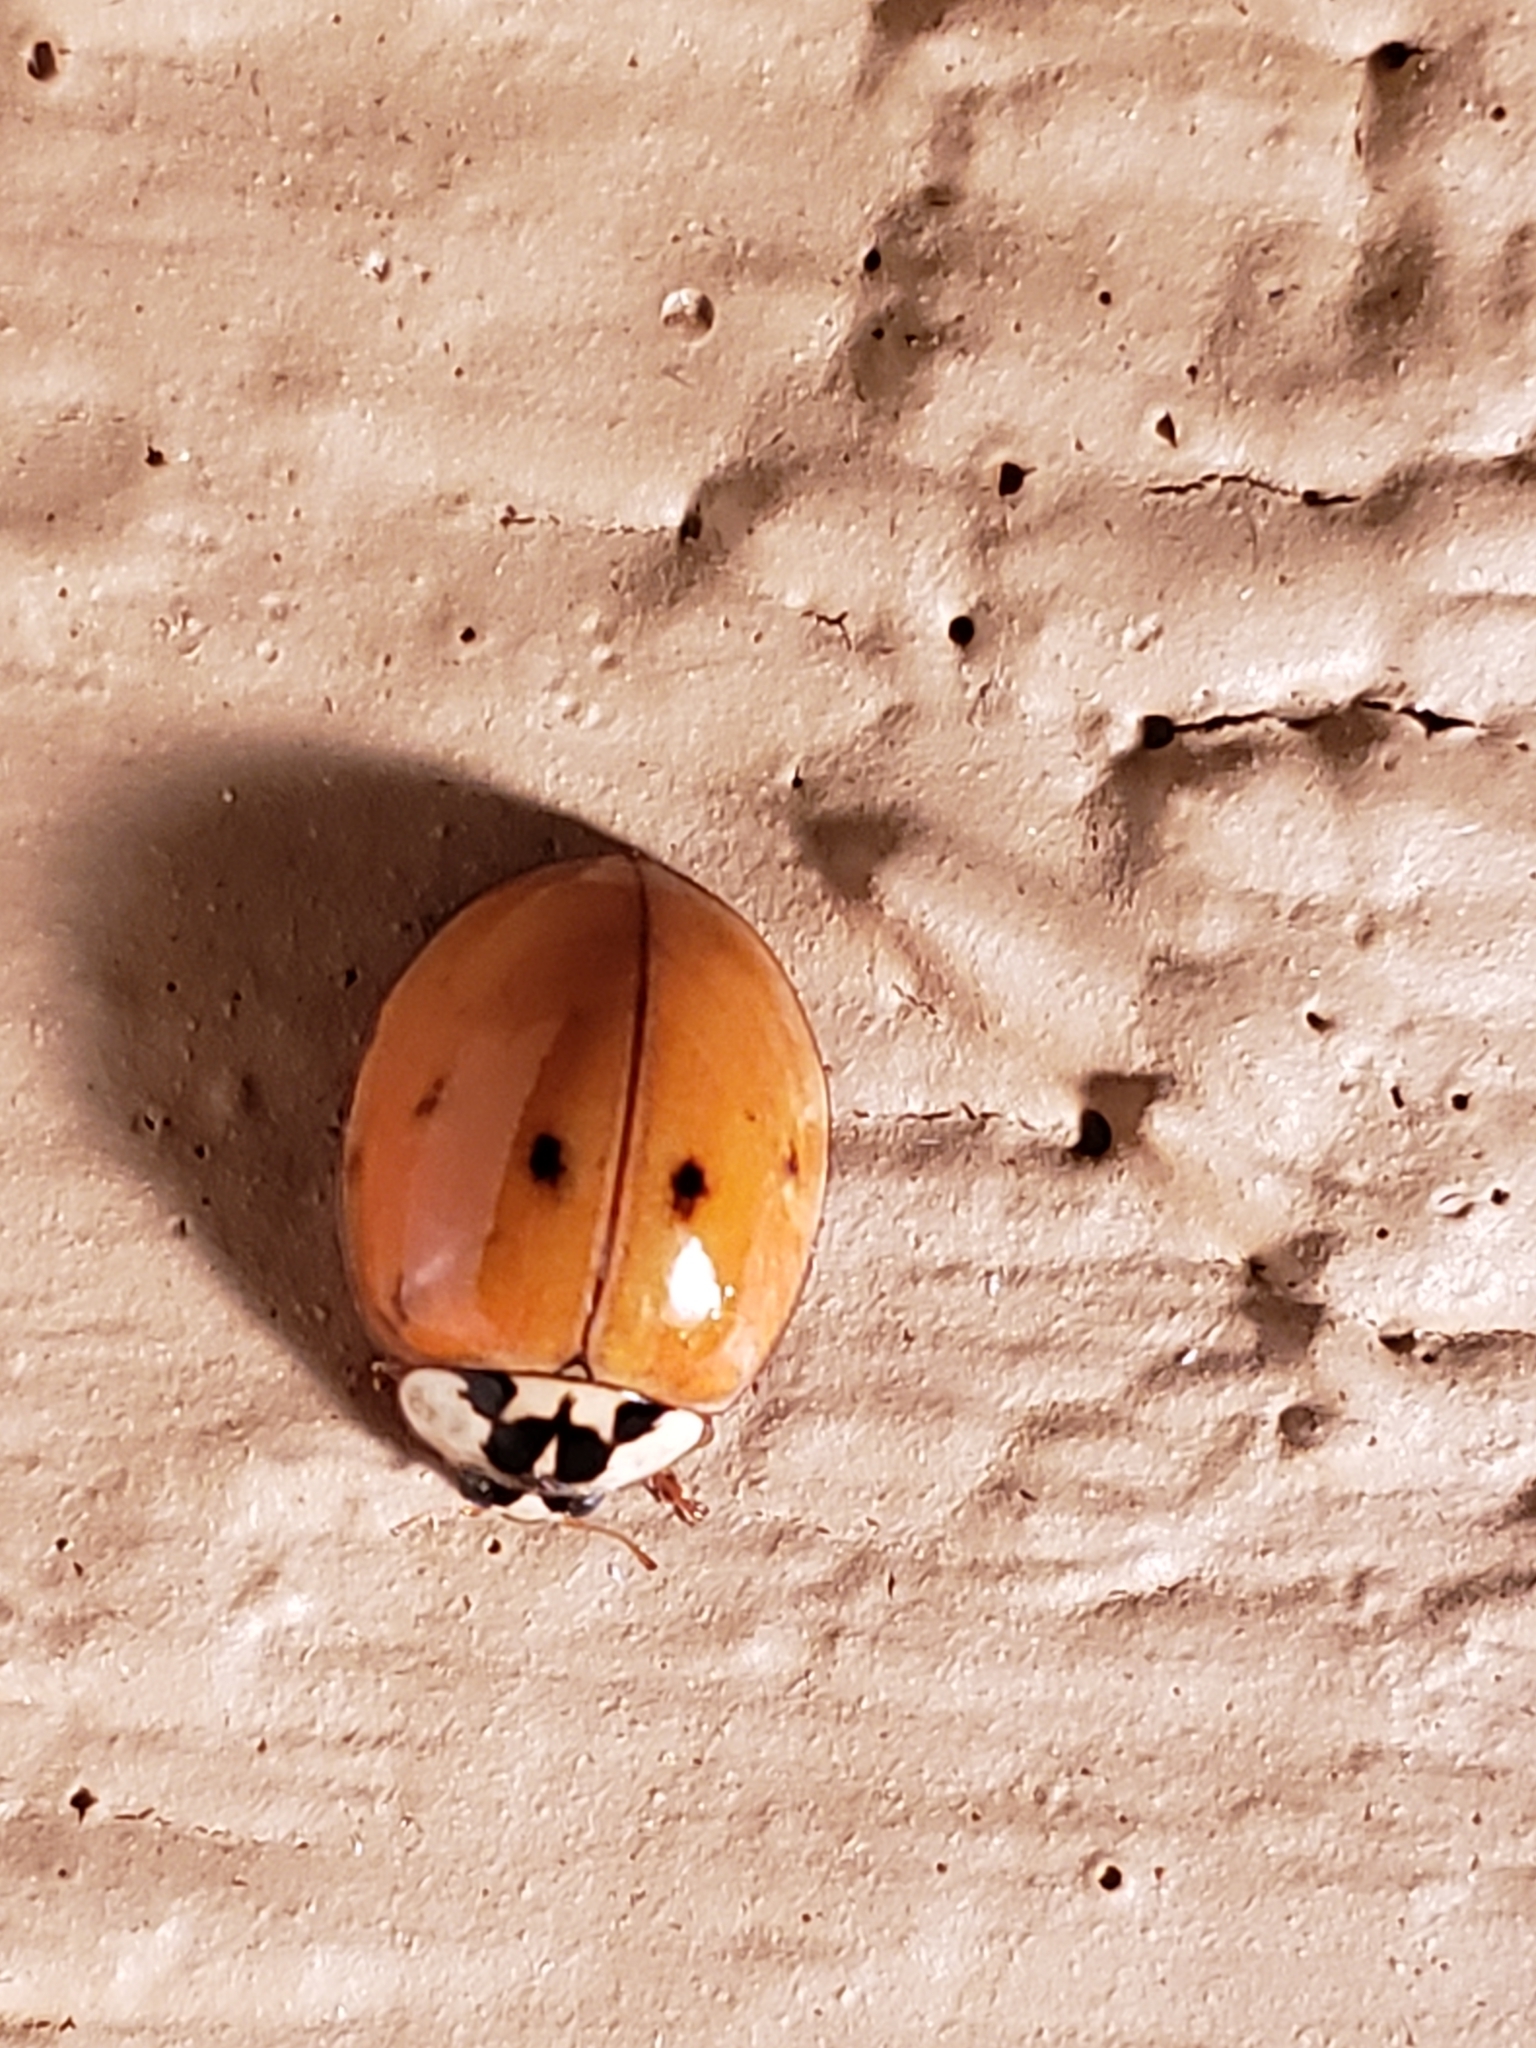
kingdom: Animalia
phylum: Arthropoda
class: Insecta
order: Coleoptera
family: Coccinellidae
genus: Harmonia
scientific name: Harmonia axyridis
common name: Harlequin ladybird
